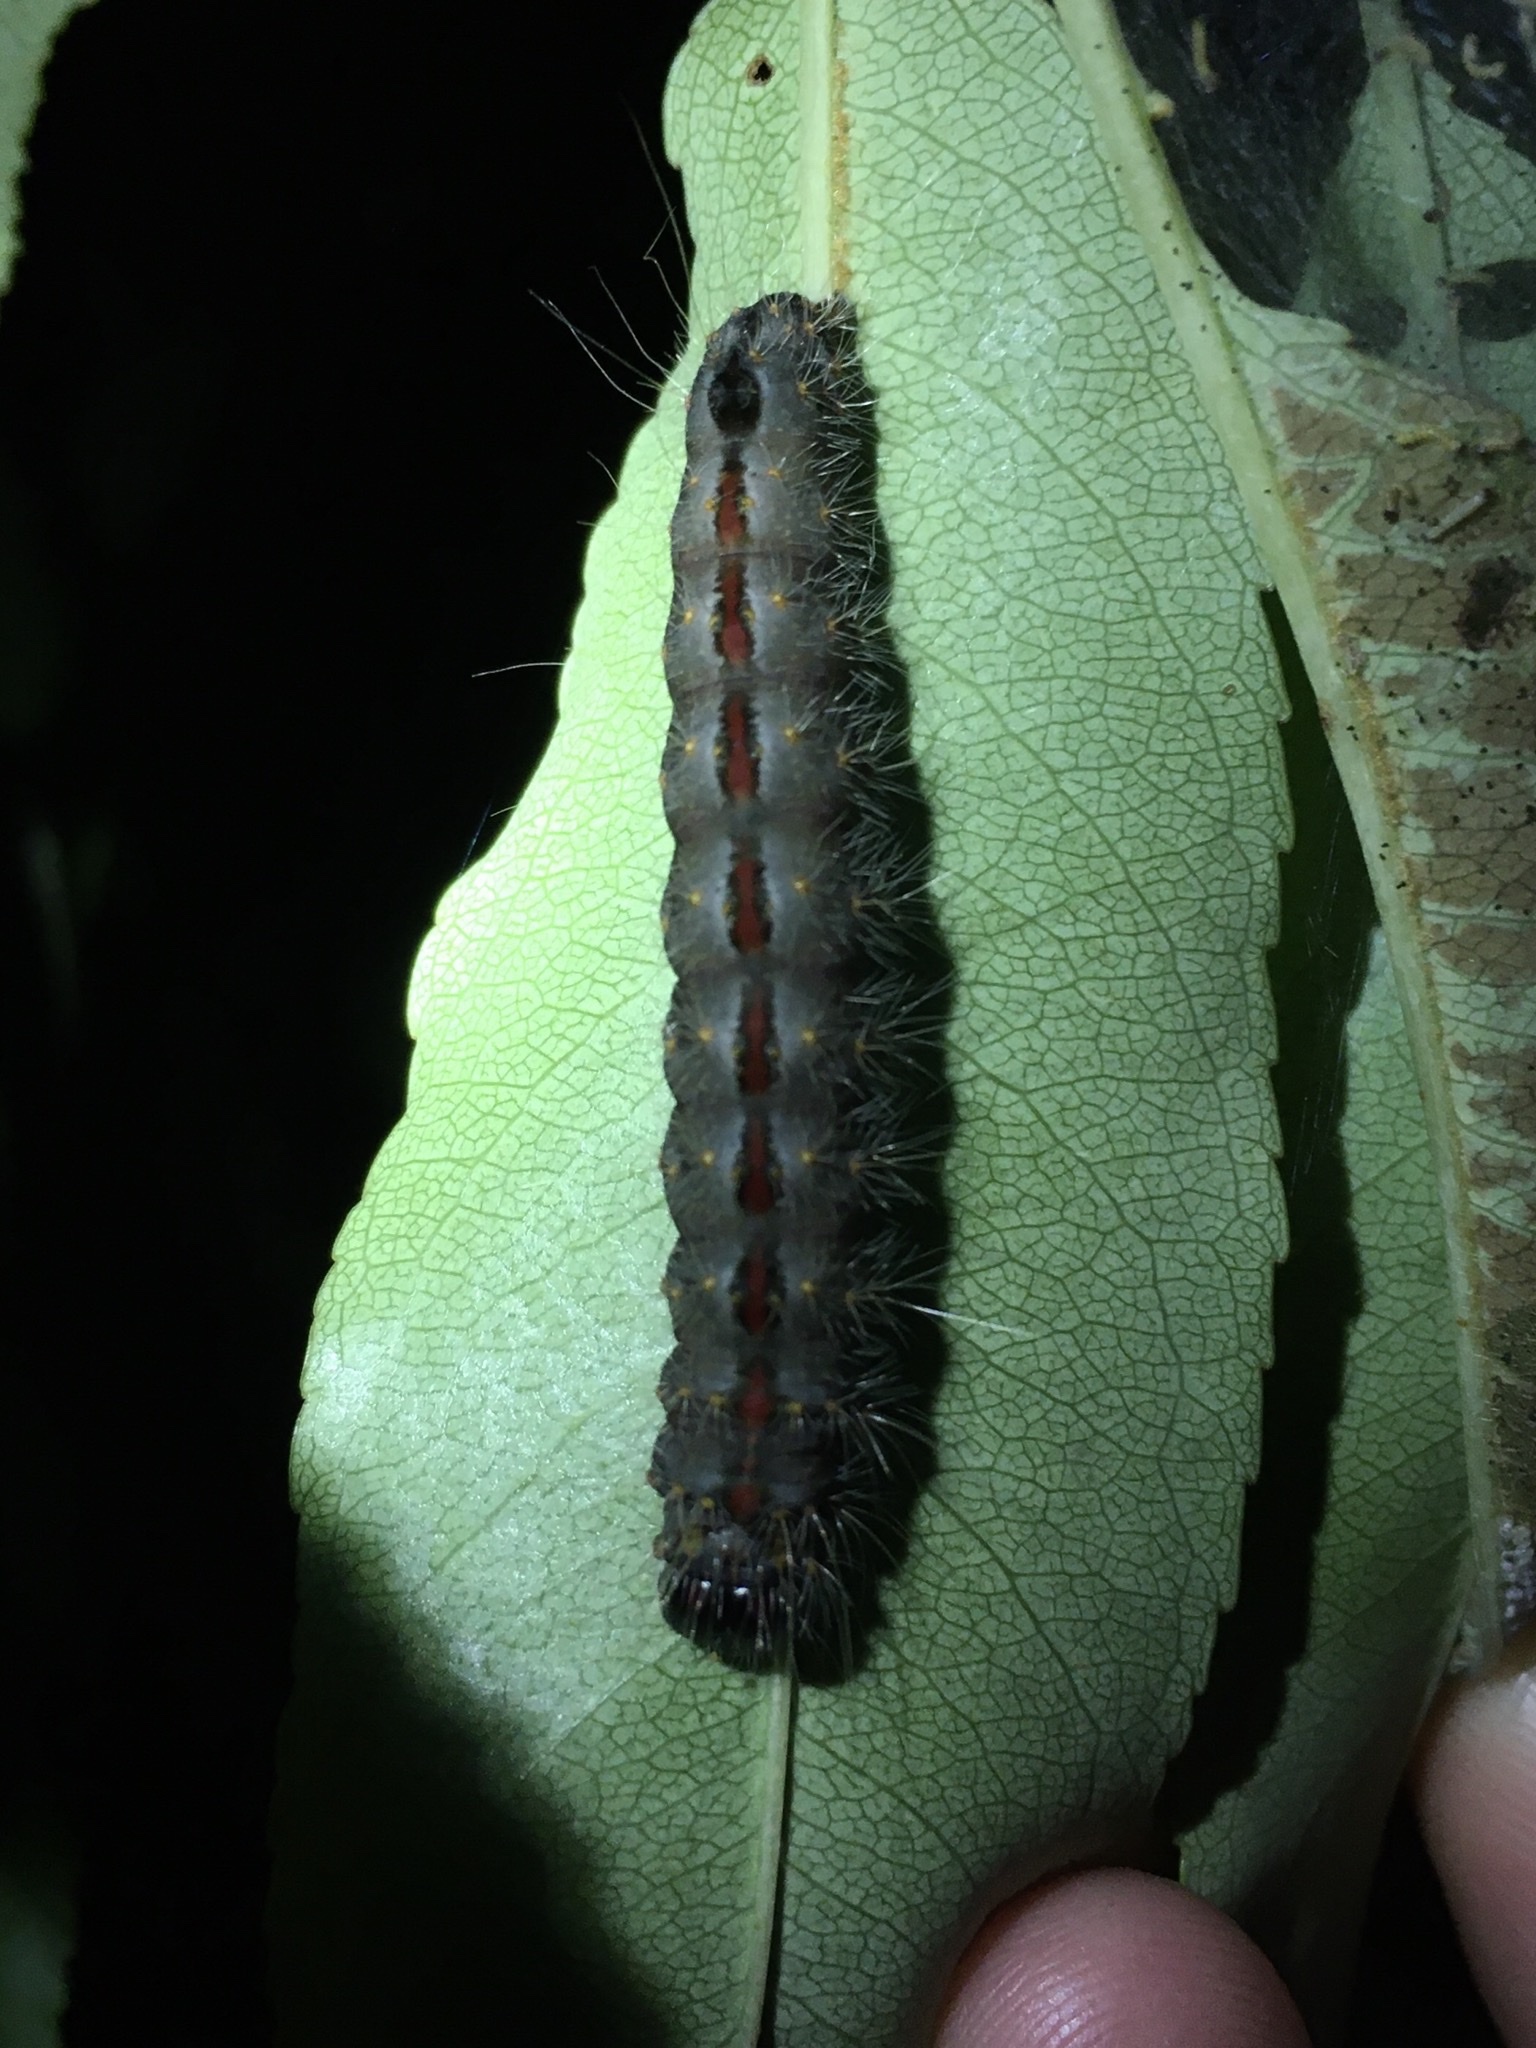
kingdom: Animalia
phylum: Arthropoda
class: Insecta
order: Lepidoptera
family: Noctuidae
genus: Acronicta
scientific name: Acronicta hasta
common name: Cherry dagger
